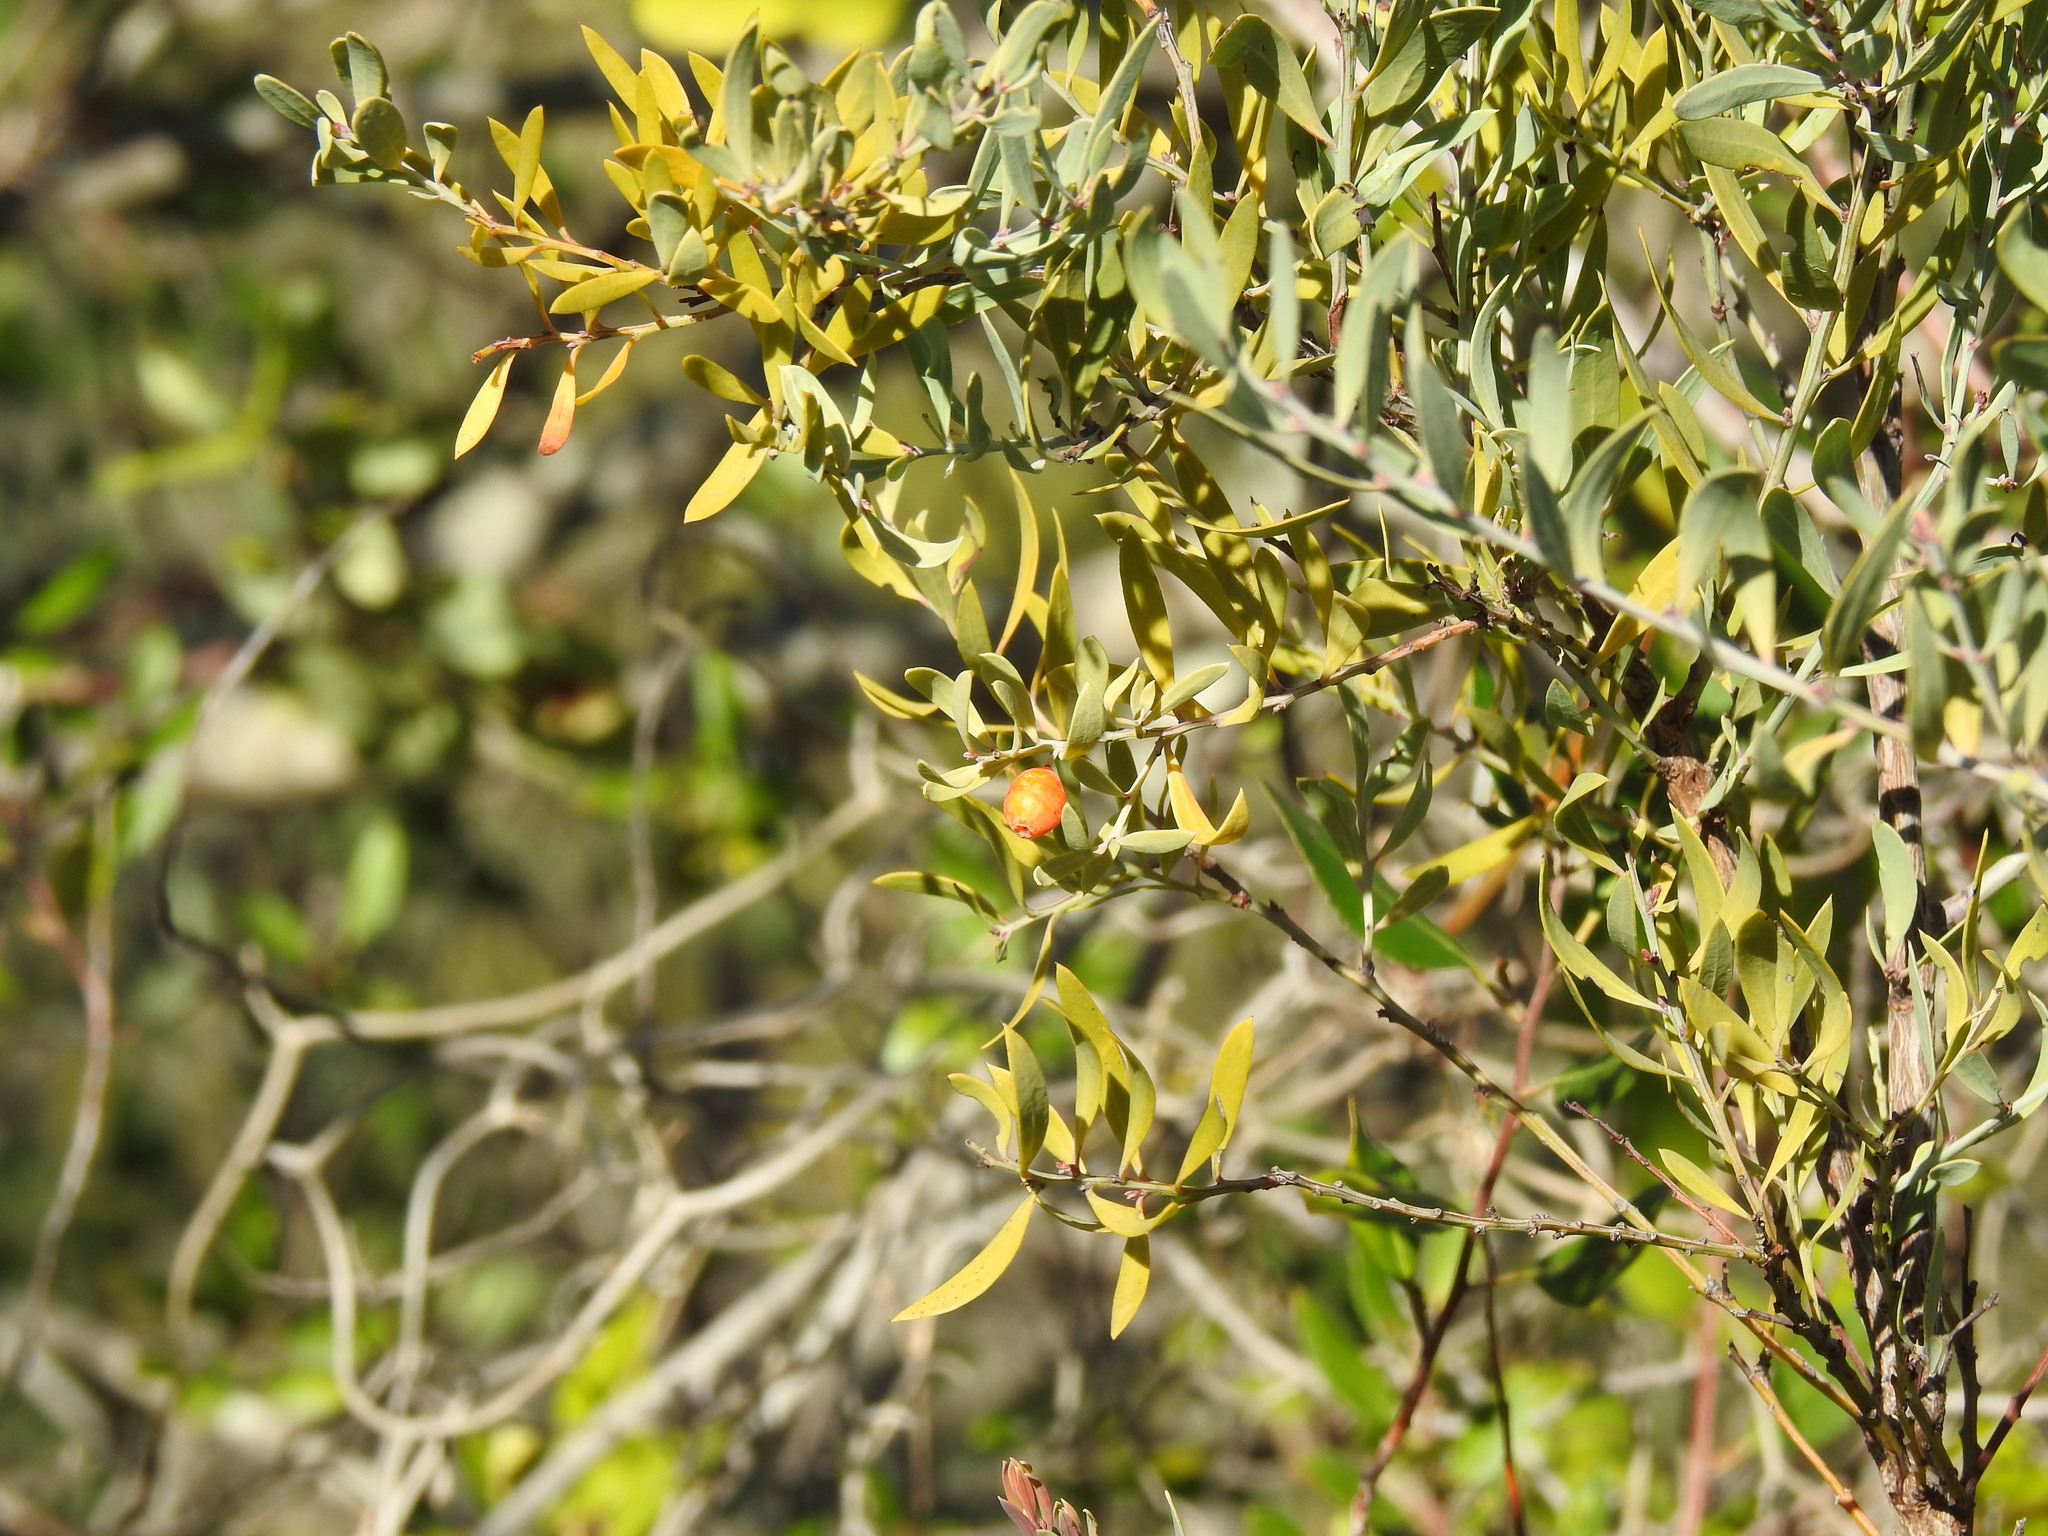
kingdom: Plantae
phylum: Tracheophyta
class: Magnoliopsida
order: Santalales
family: Santalaceae
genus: Osyris
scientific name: Osyris lanceolata
